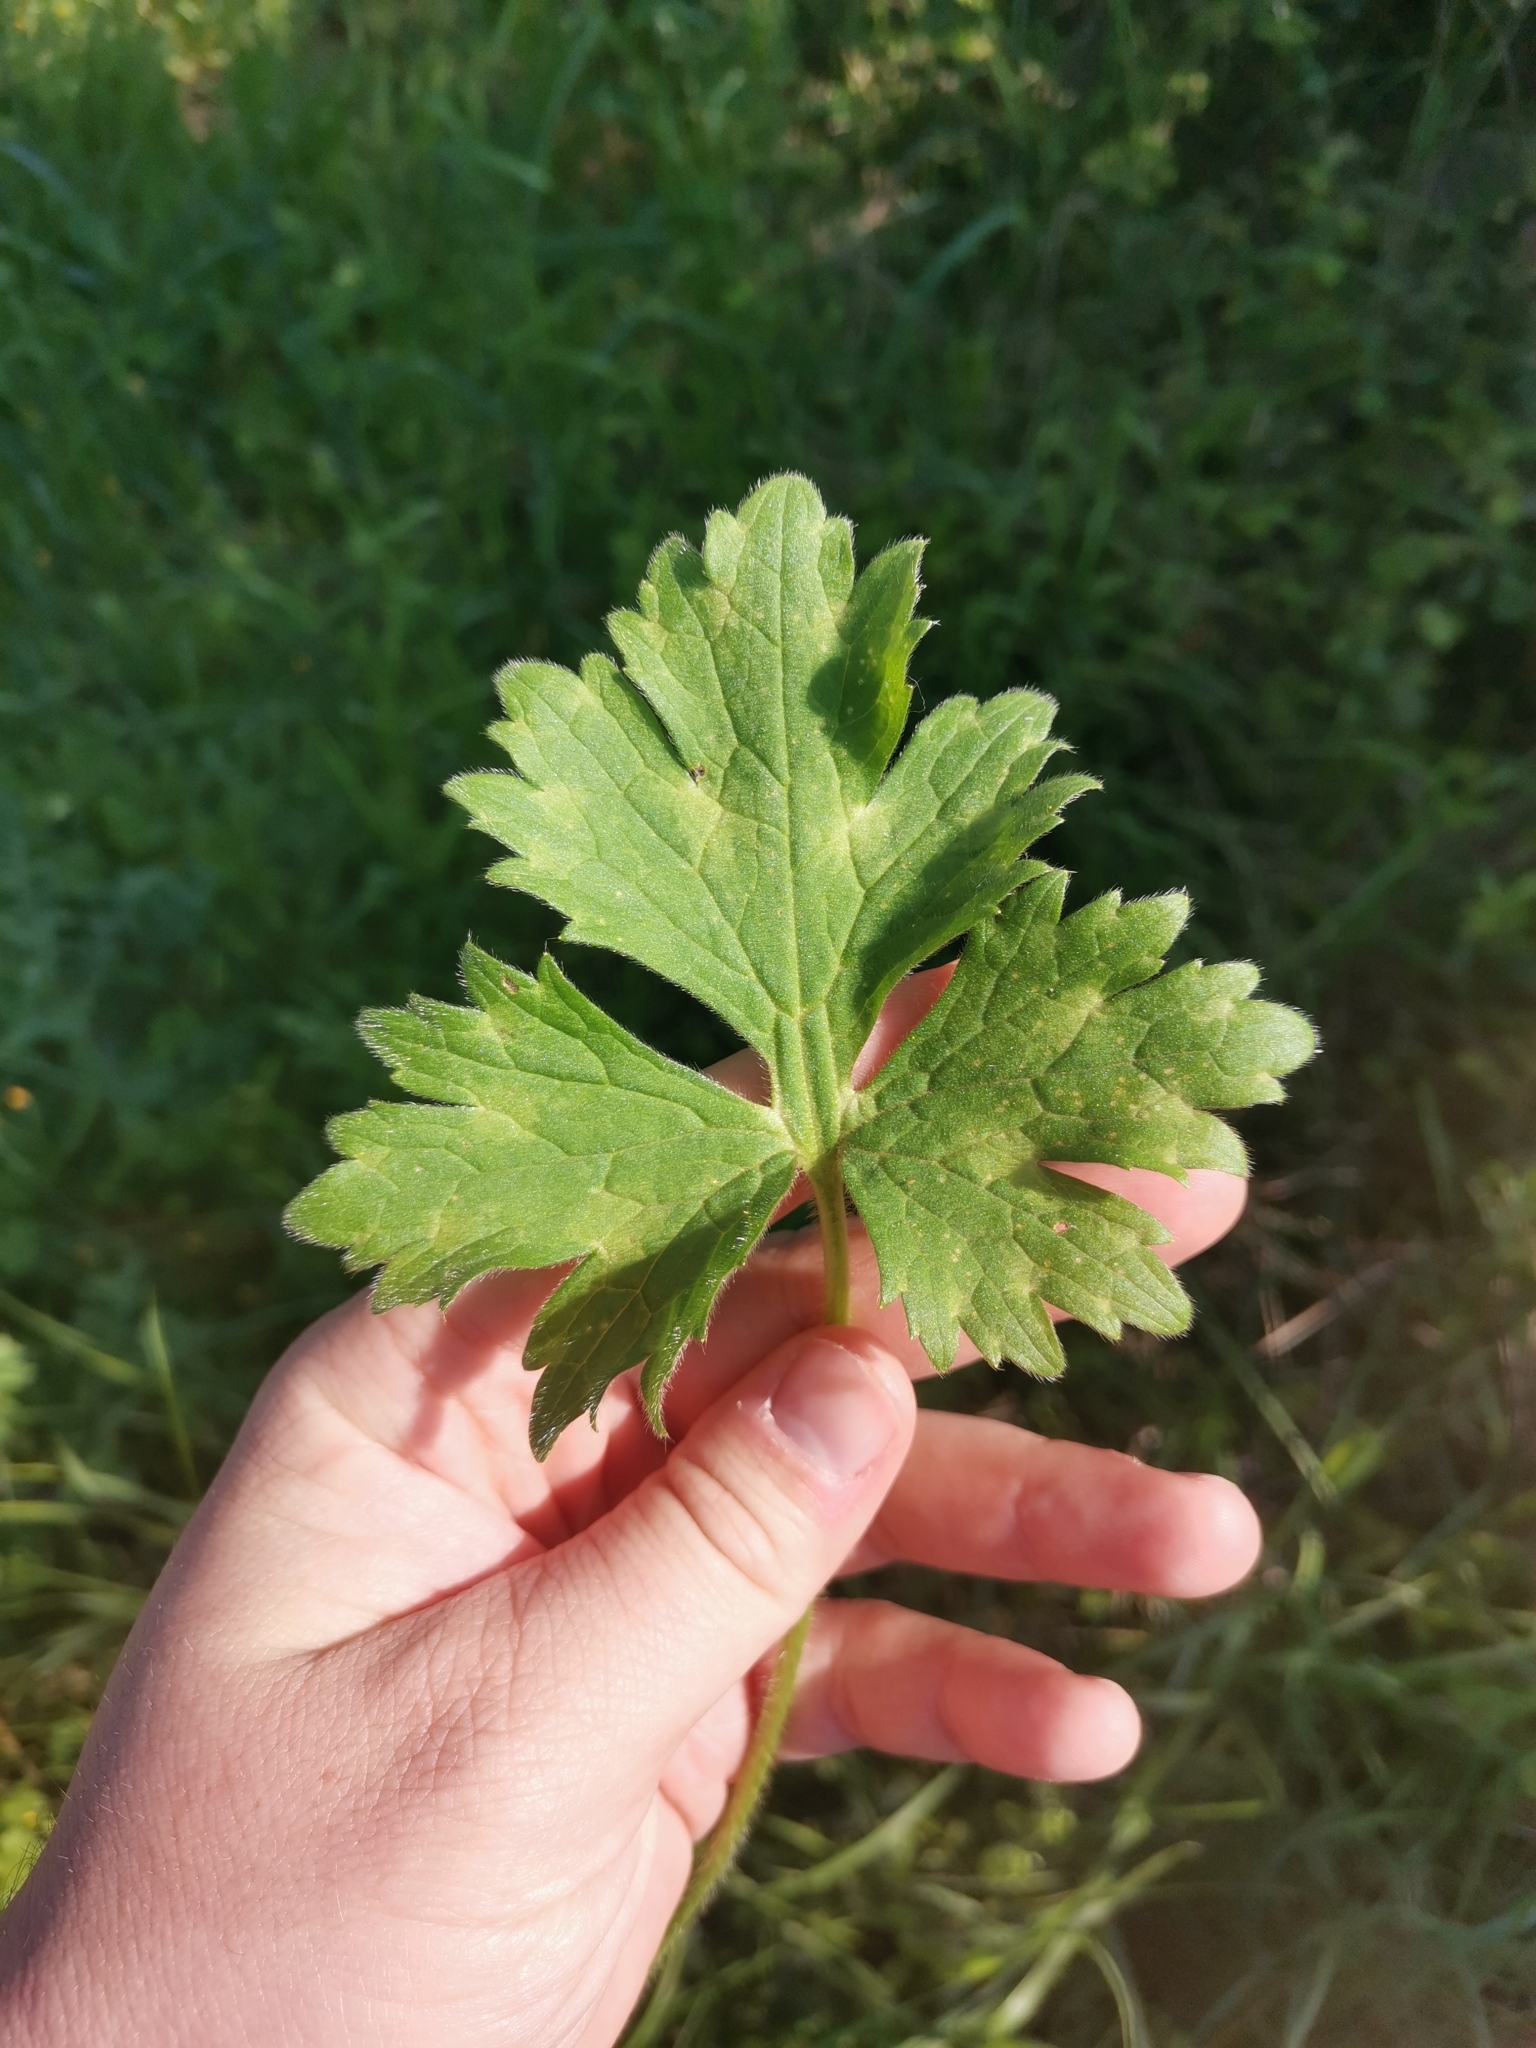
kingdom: Plantae
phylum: Tracheophyta
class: Magnoliopsida
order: Ranunculales
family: Ranunculaceae
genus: Ranunculus
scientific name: Ranunculus neapolitanus
